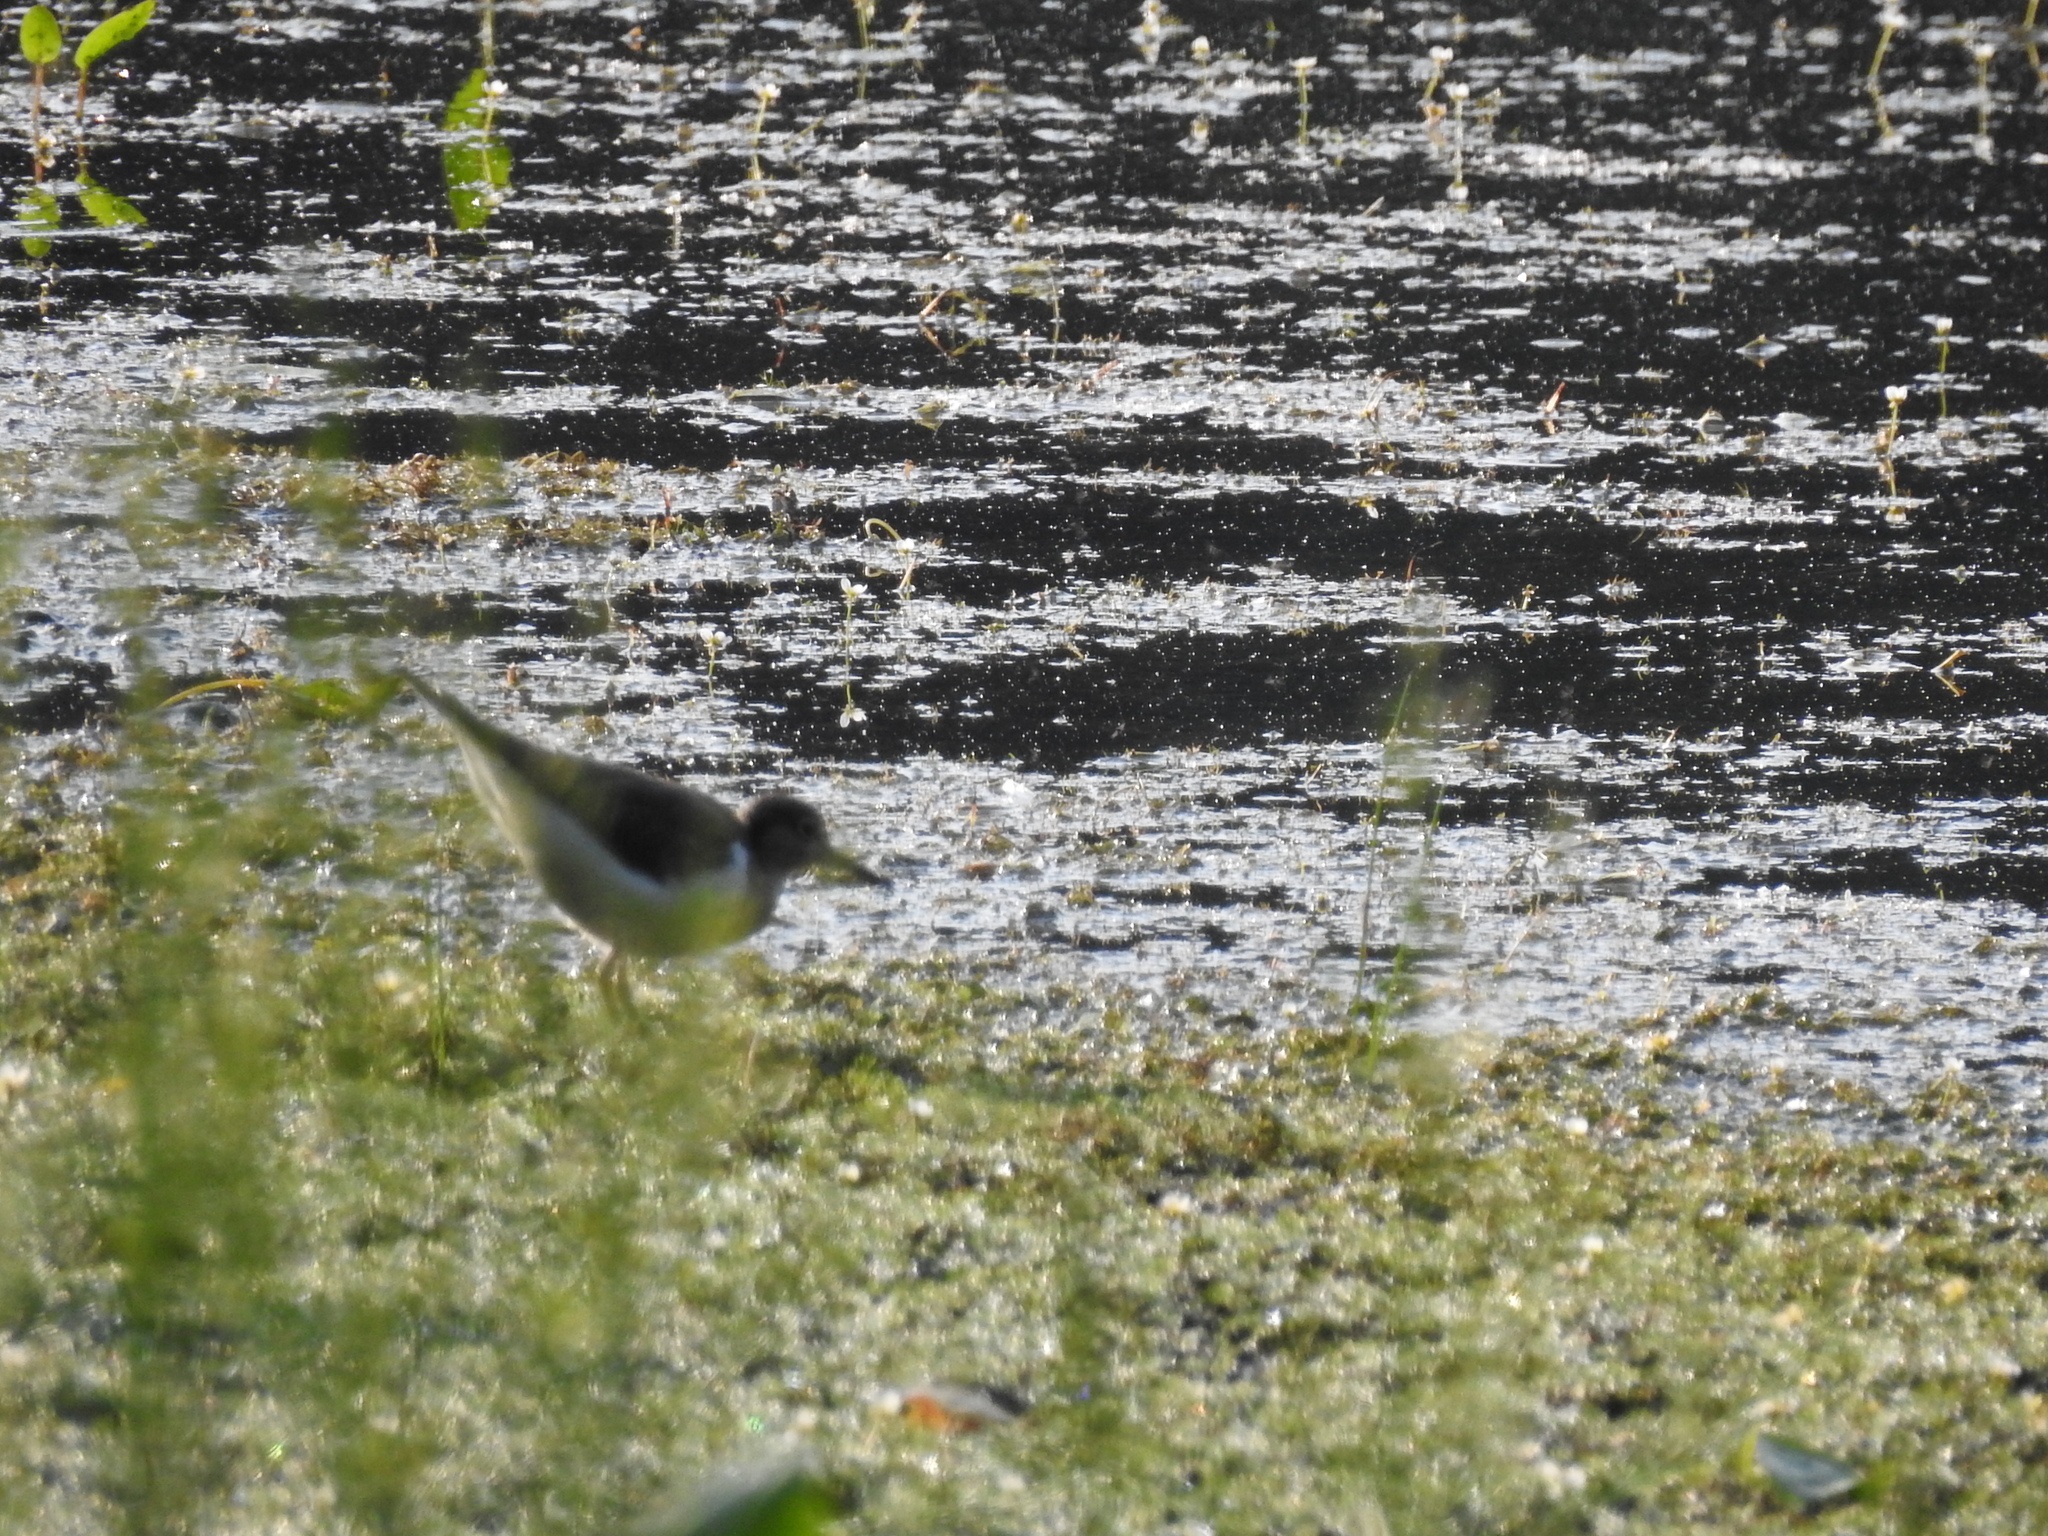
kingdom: Animalia
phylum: Chordata
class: Aves
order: Charadriiformes
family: Scolopacidae
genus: Actitis
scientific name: Actitis hypoleucos
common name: Common sandpiper
